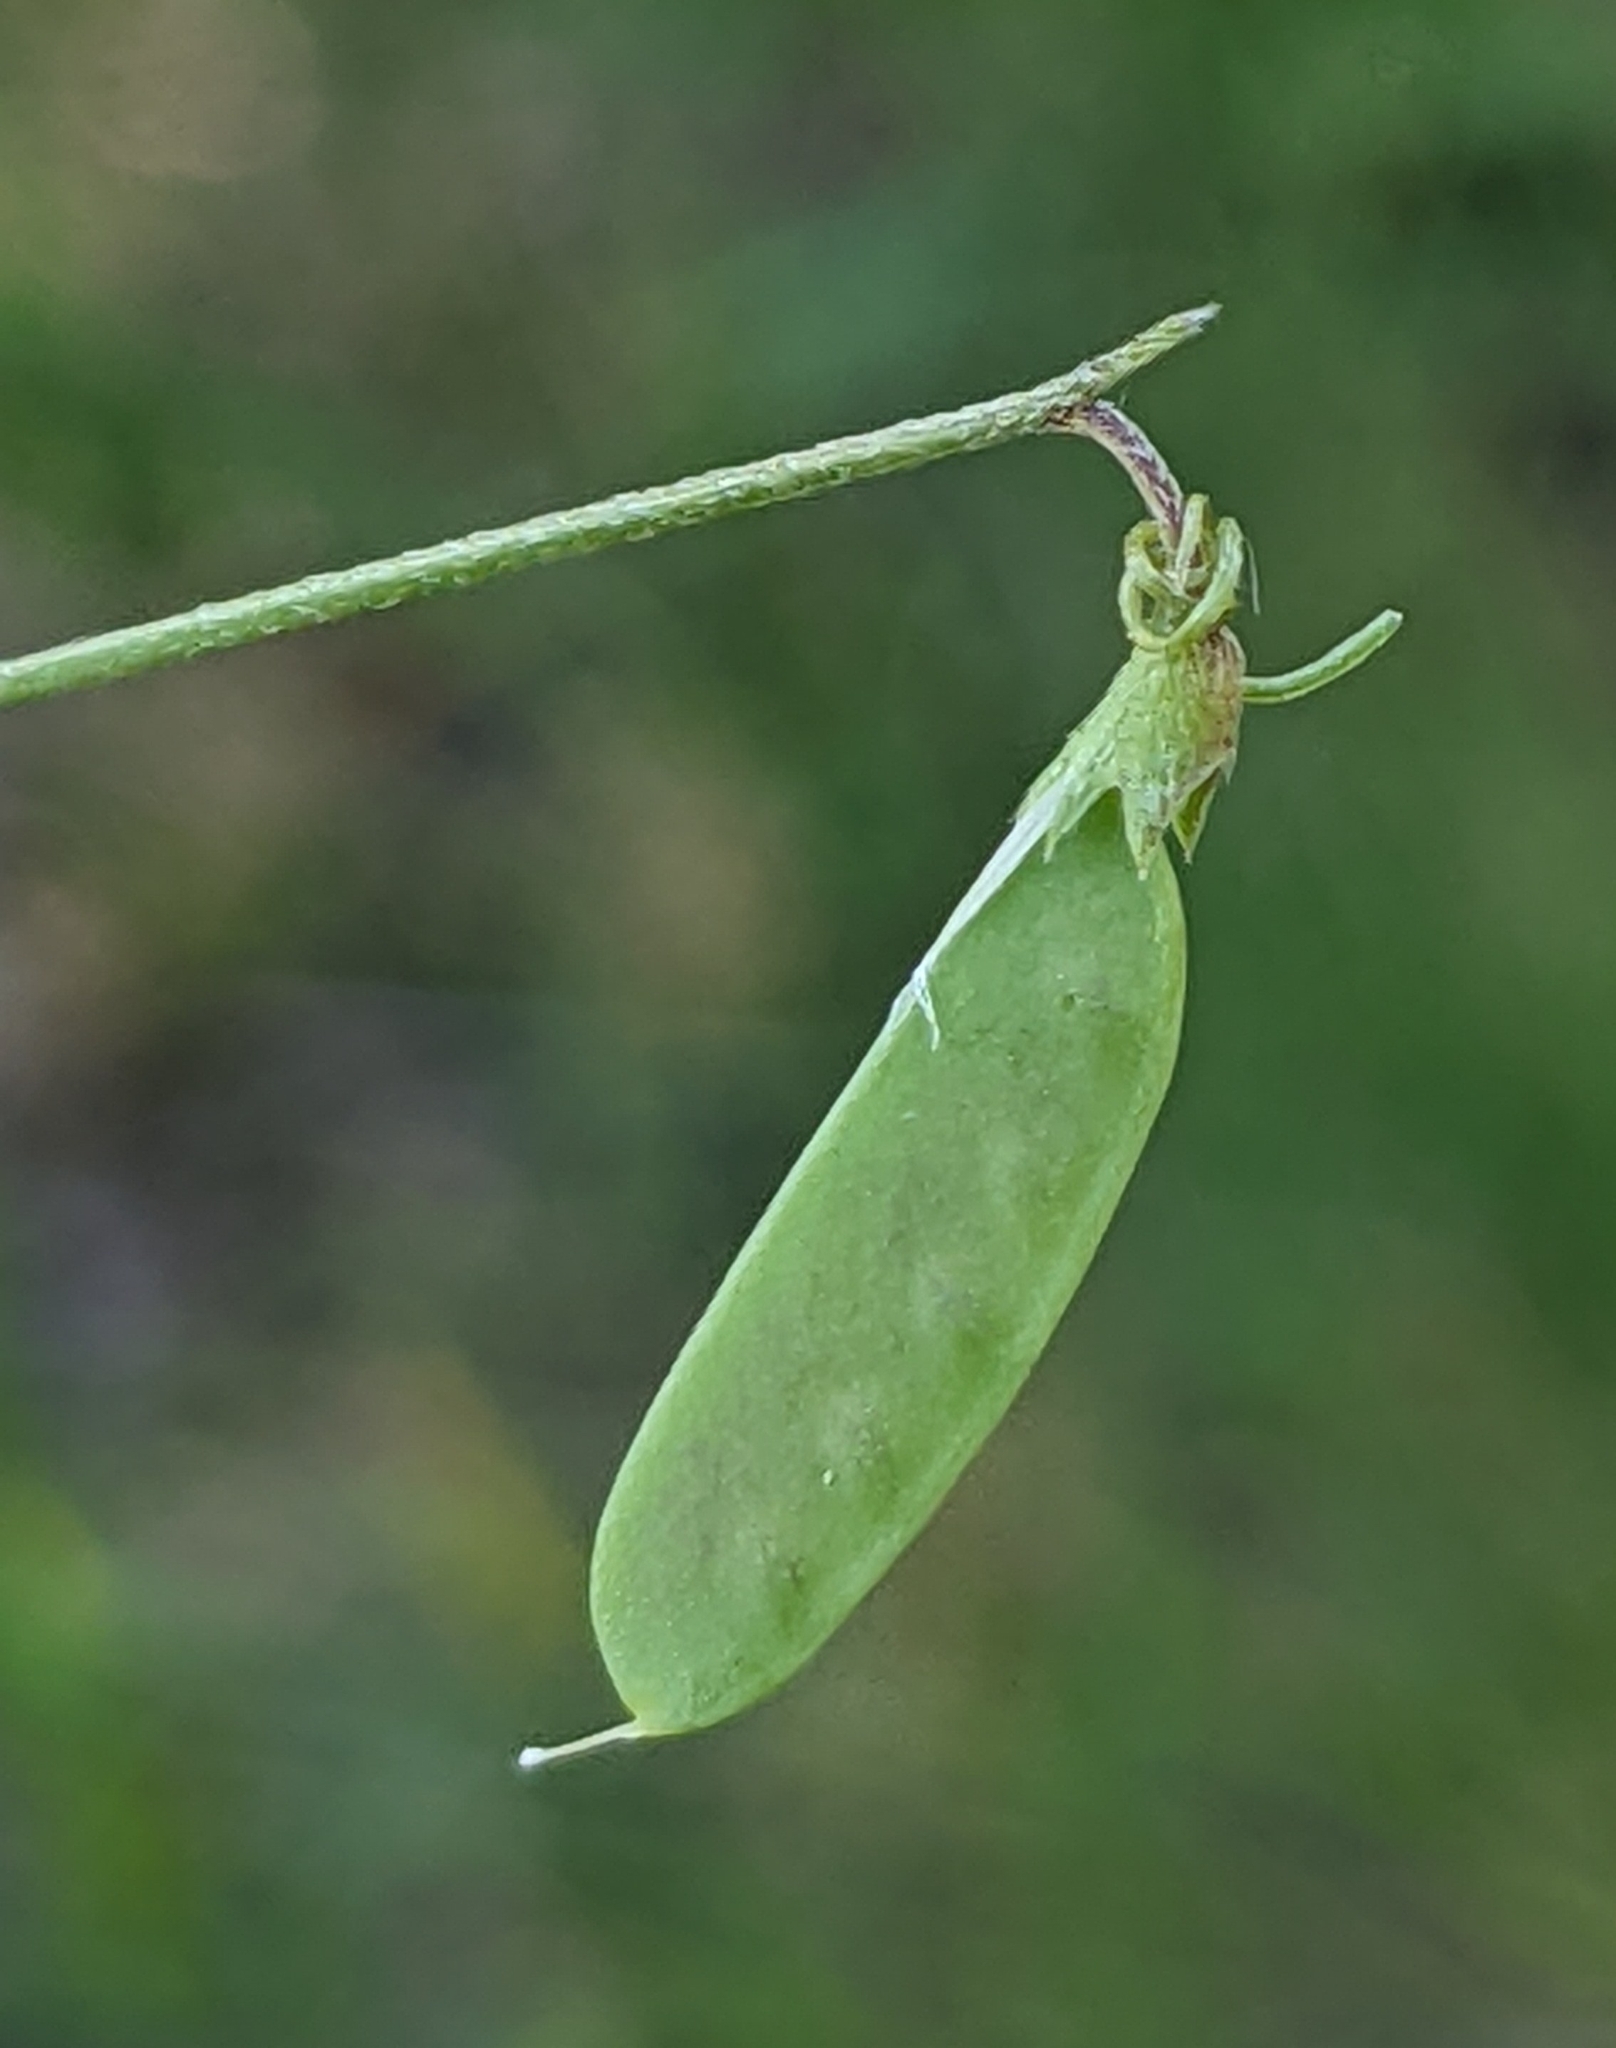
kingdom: Plantae
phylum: Tracheophyta
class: Magnoliopsida
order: Fabales
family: Fabaceae
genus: Vicia
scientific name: Vicia parviflora
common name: Slender tare
